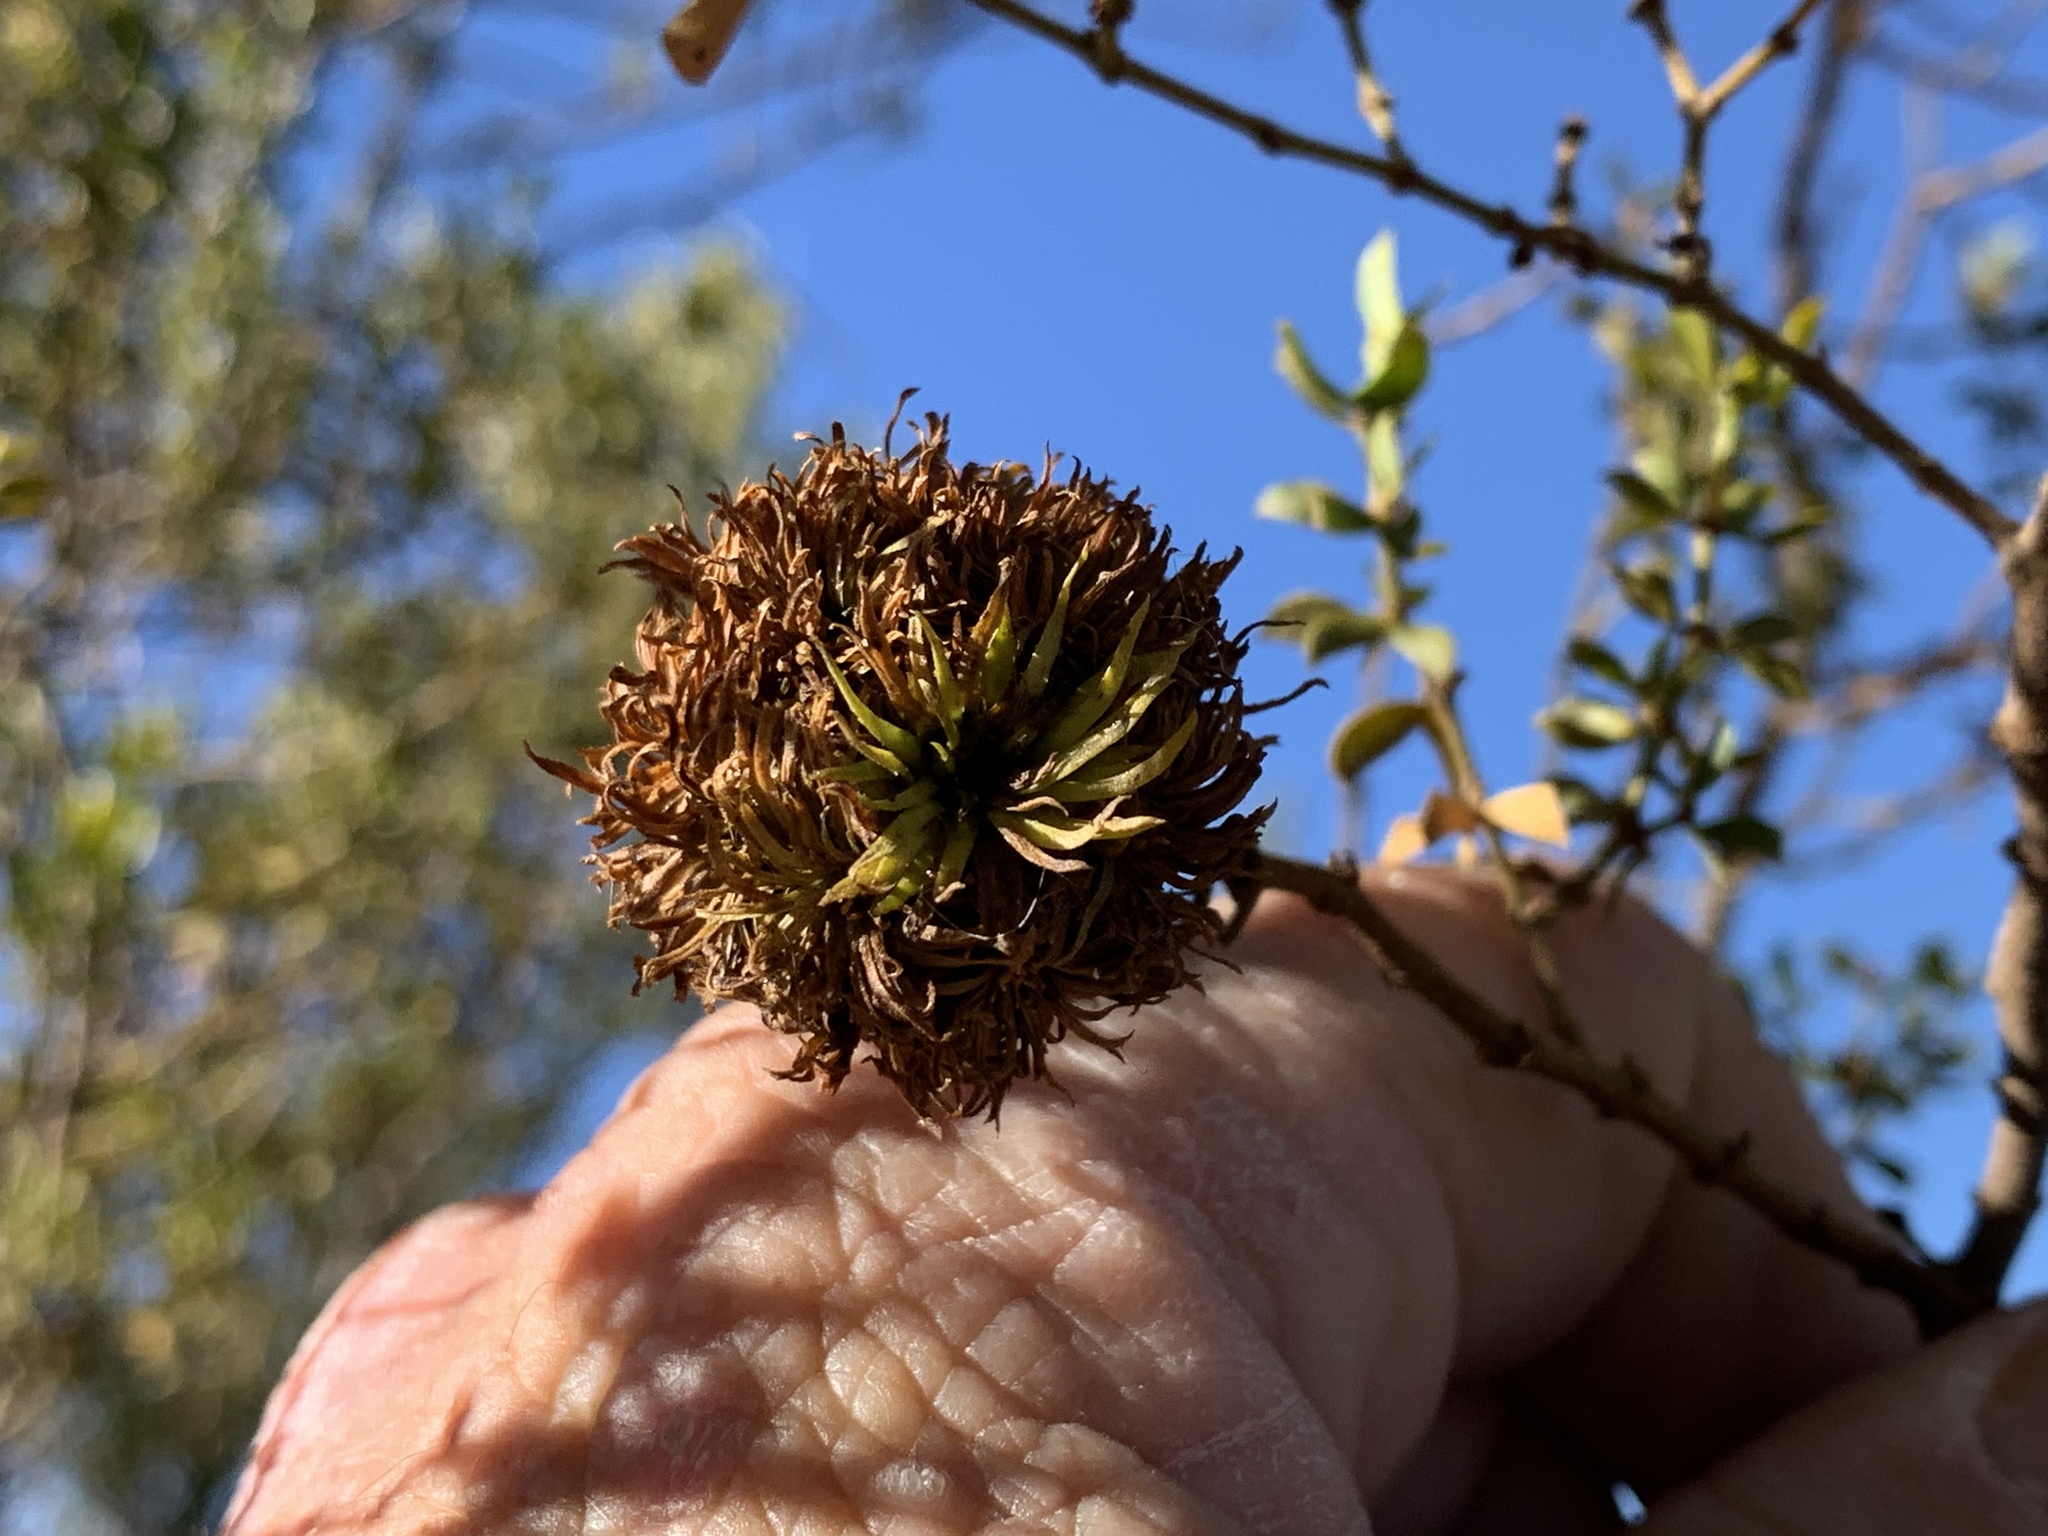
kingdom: Animalia
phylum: Arthropoda
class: Insecta
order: Diptera
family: Cecidomyiidae
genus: Asphondylia
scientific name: Asphondylia auripila
